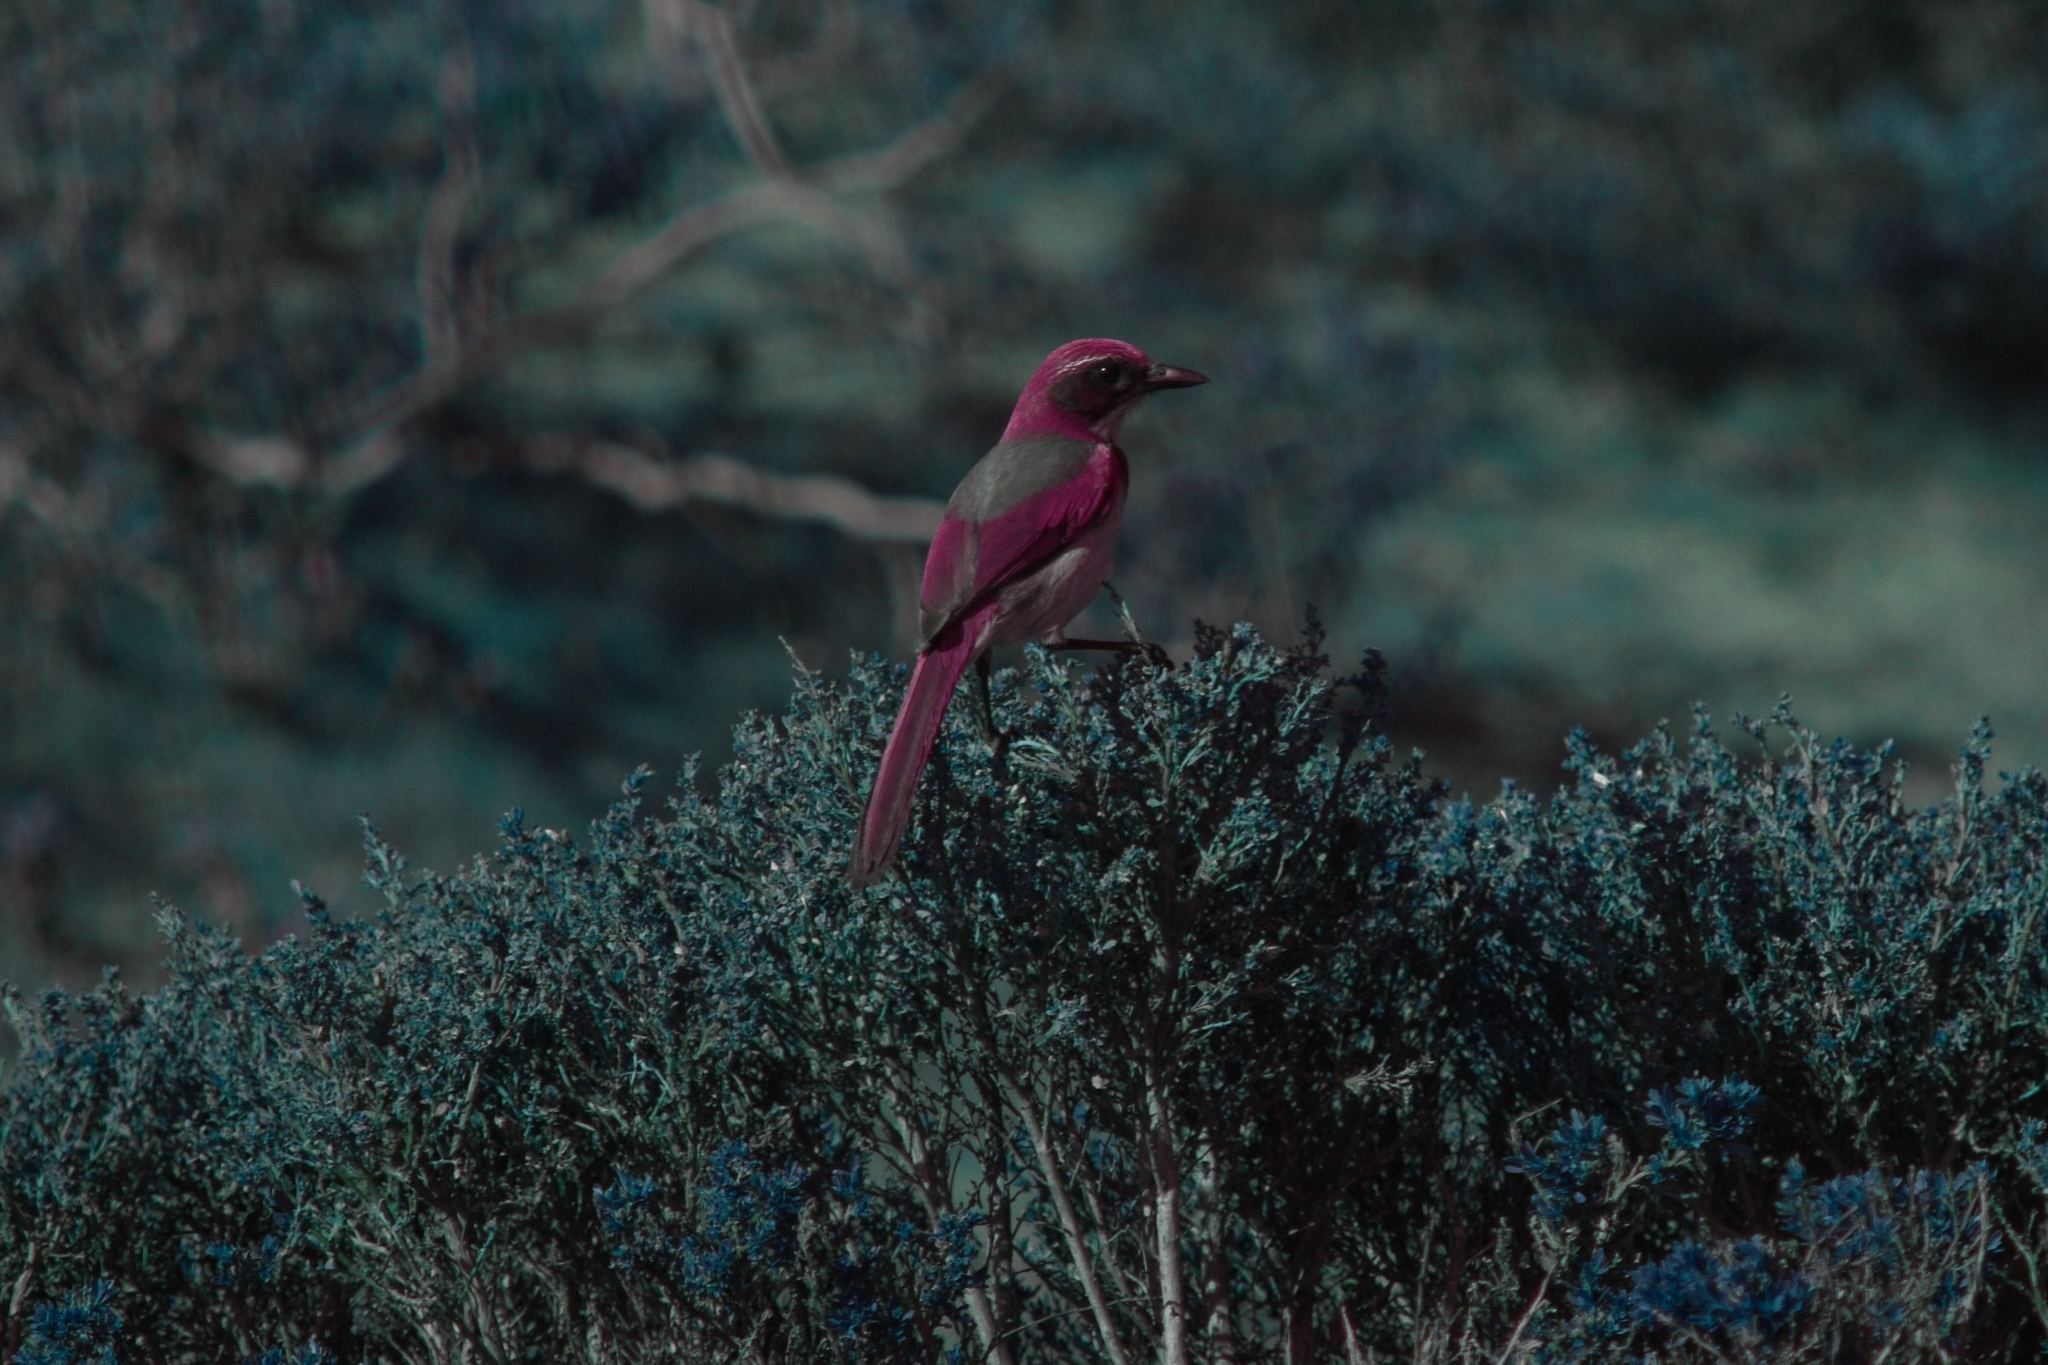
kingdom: Animalia
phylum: Chordata
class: Aves
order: Passeriformes
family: Corvidae
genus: Aphelocoma
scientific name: Aphelocoma californica
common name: California scrub-jay
